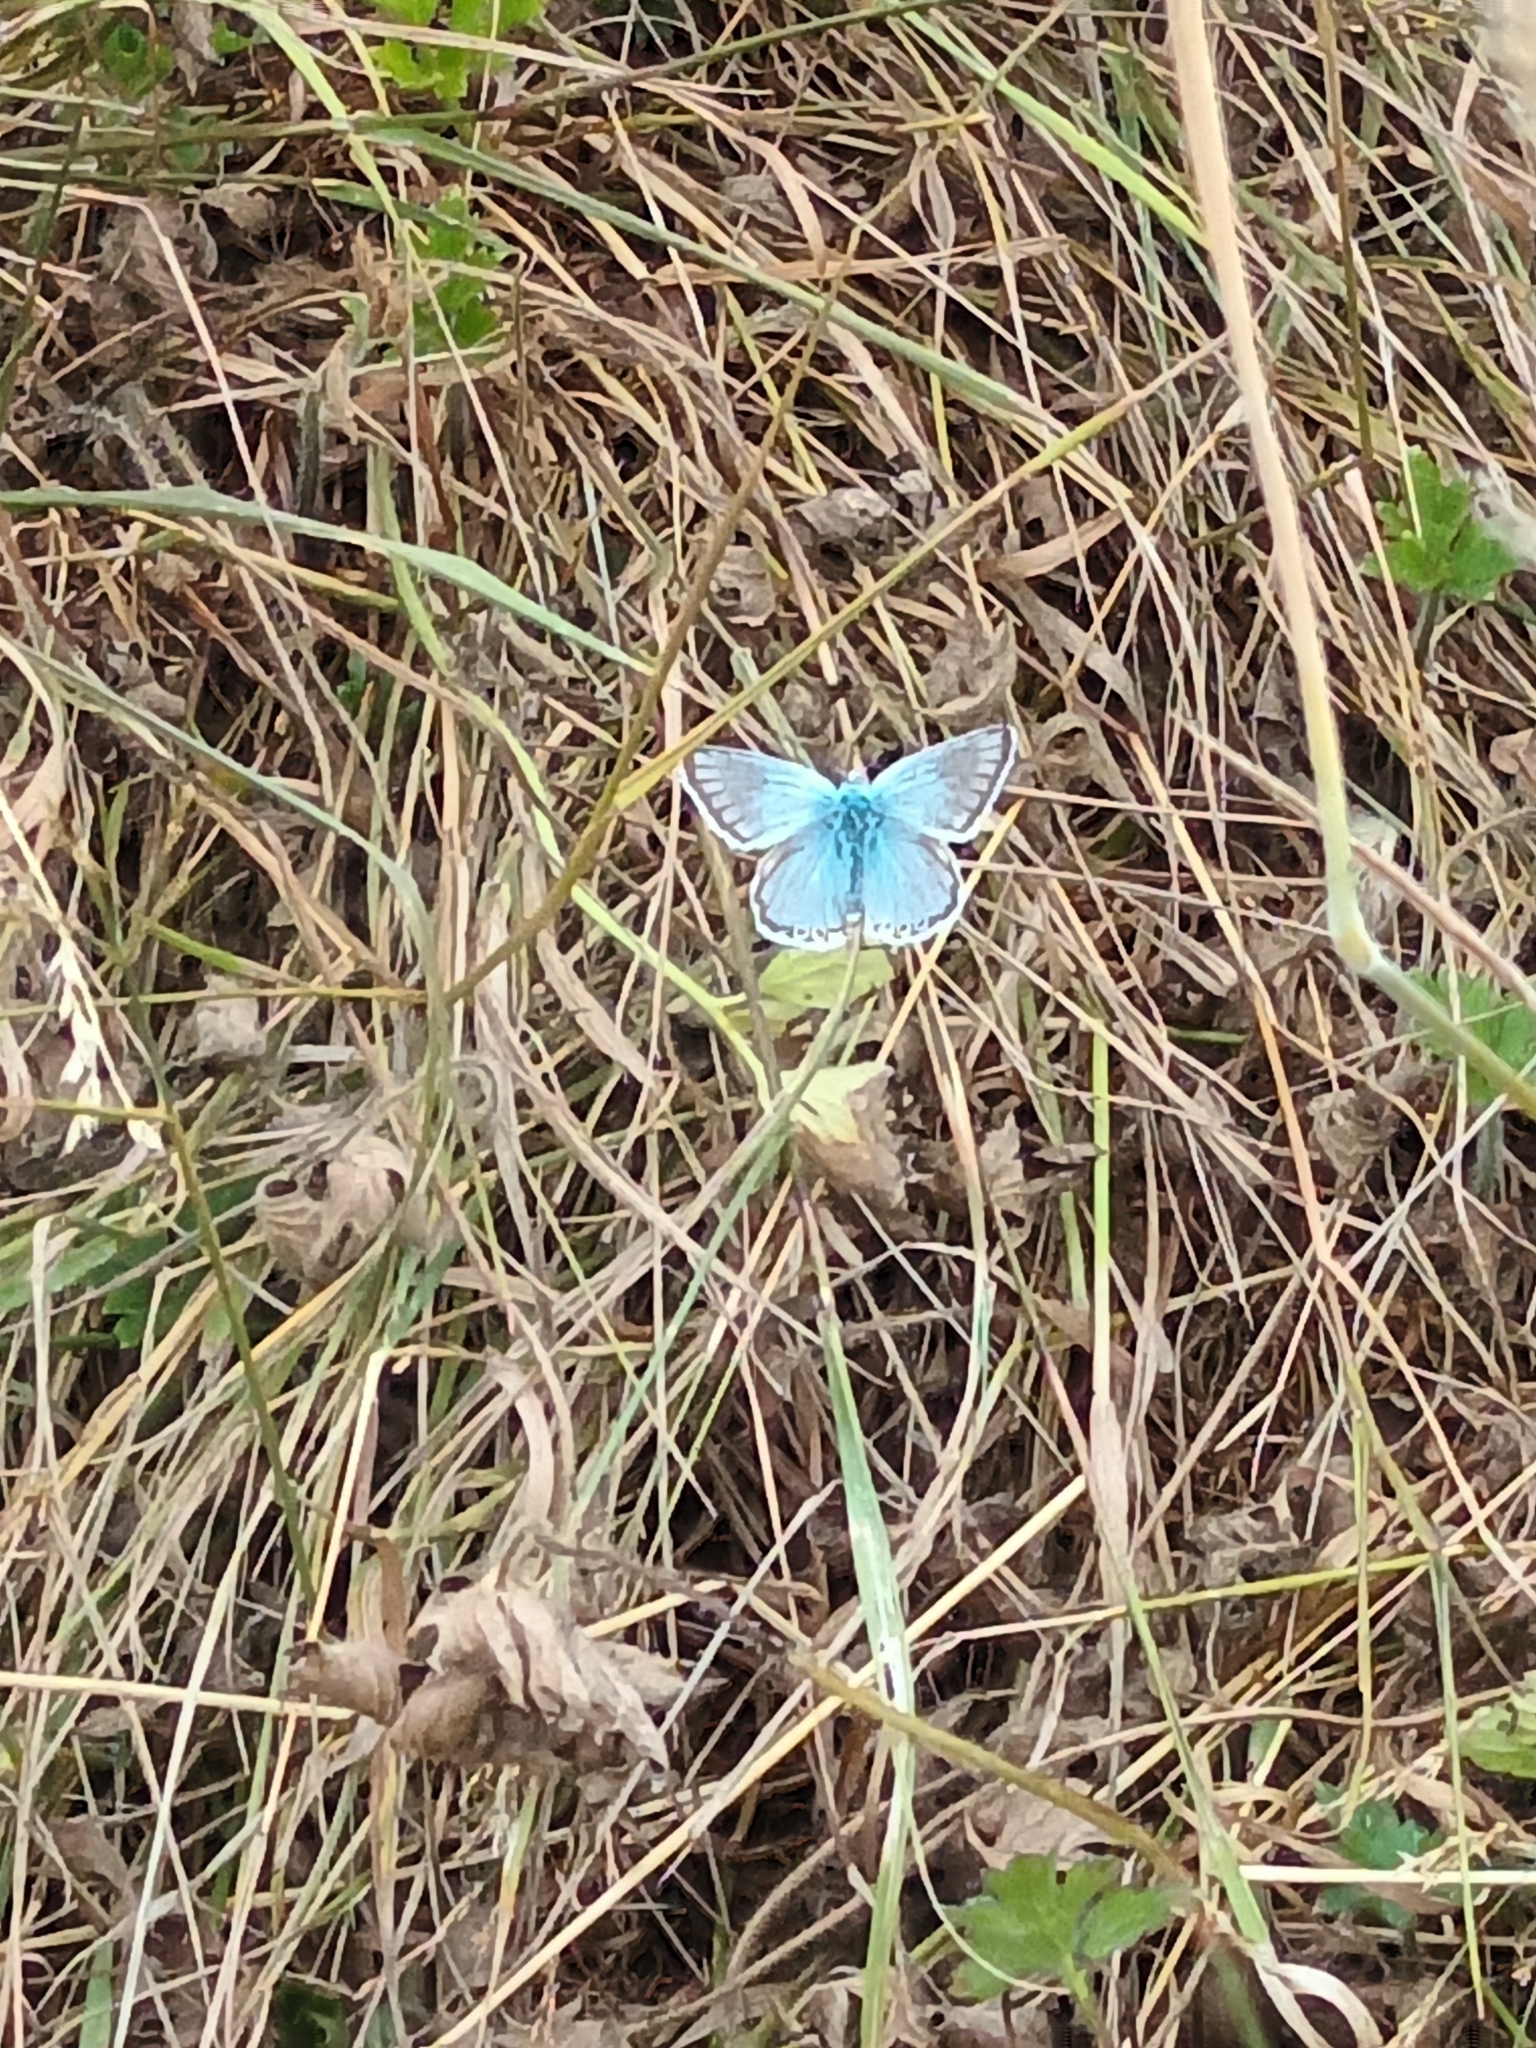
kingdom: Animalia
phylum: Arthropoda
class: Insecta
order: Lepidoptera
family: Lycaenidae
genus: Lysandra
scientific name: Lysandra coridon
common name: Chalkhill blue
